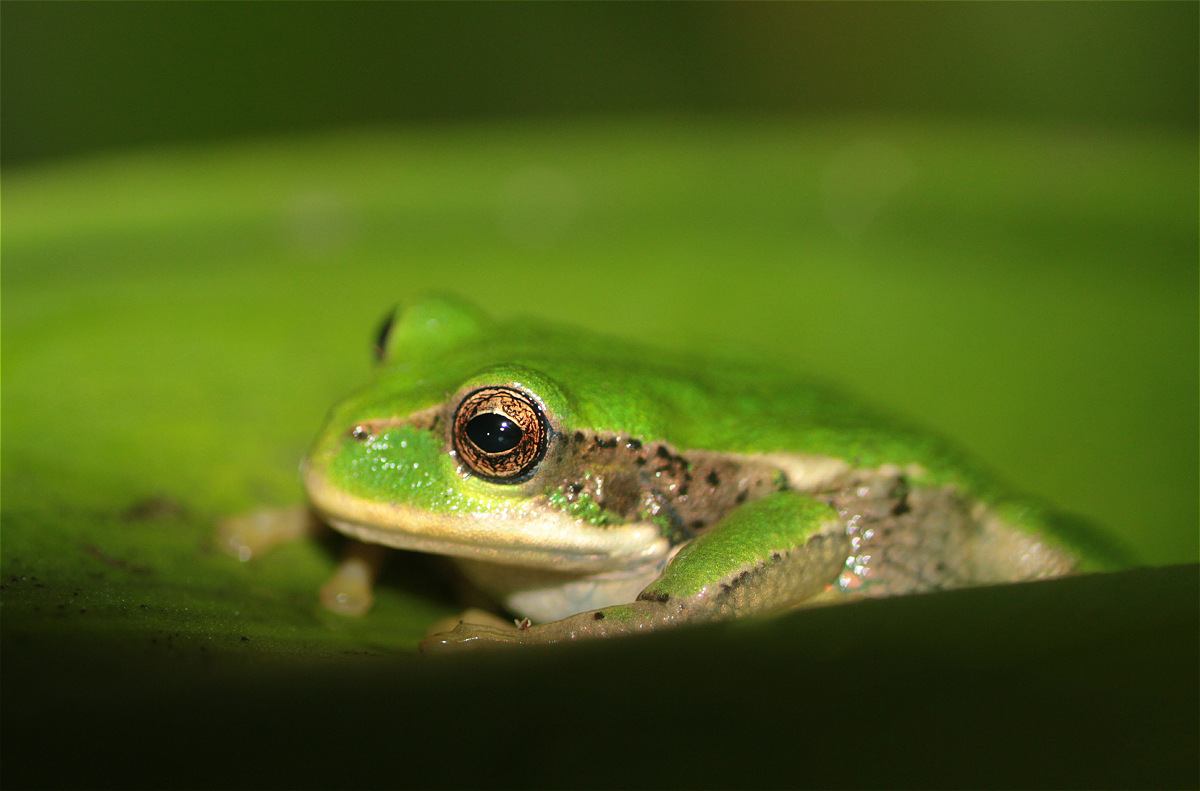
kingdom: Animalia
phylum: Chordata
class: Amphibia
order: Anura
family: Hemiphractidae
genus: Gastrotheca
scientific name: Gastrotheca cuencana
